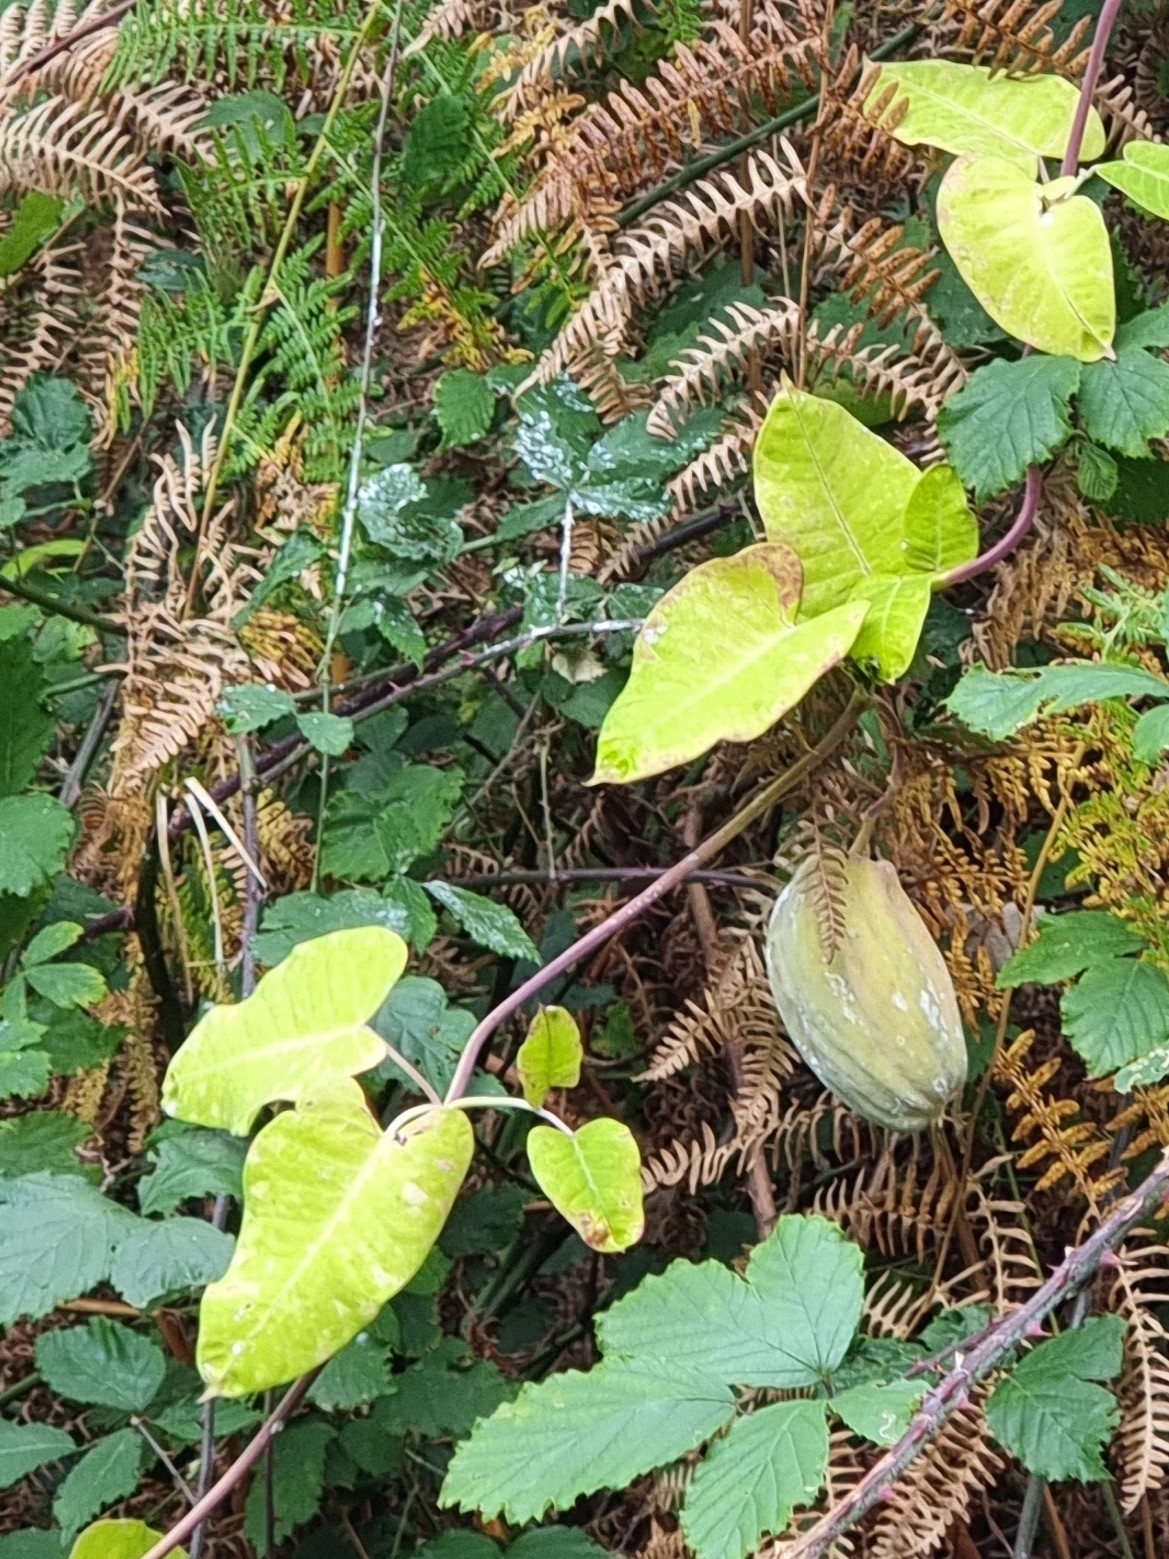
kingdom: Plantae
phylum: Tracheophyta
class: Magnoliopsida
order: Gentianales
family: Apocynaceae
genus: Araujia
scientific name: Araujia sericifera
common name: White bladderflower
